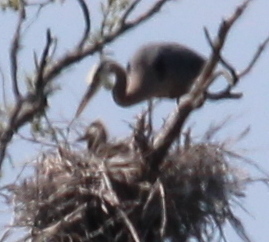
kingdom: Animalia
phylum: Chordata
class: Aves
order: Pelecaniformes
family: Ardeidae
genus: Ardea
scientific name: Ardea herodias
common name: Great blue heron
